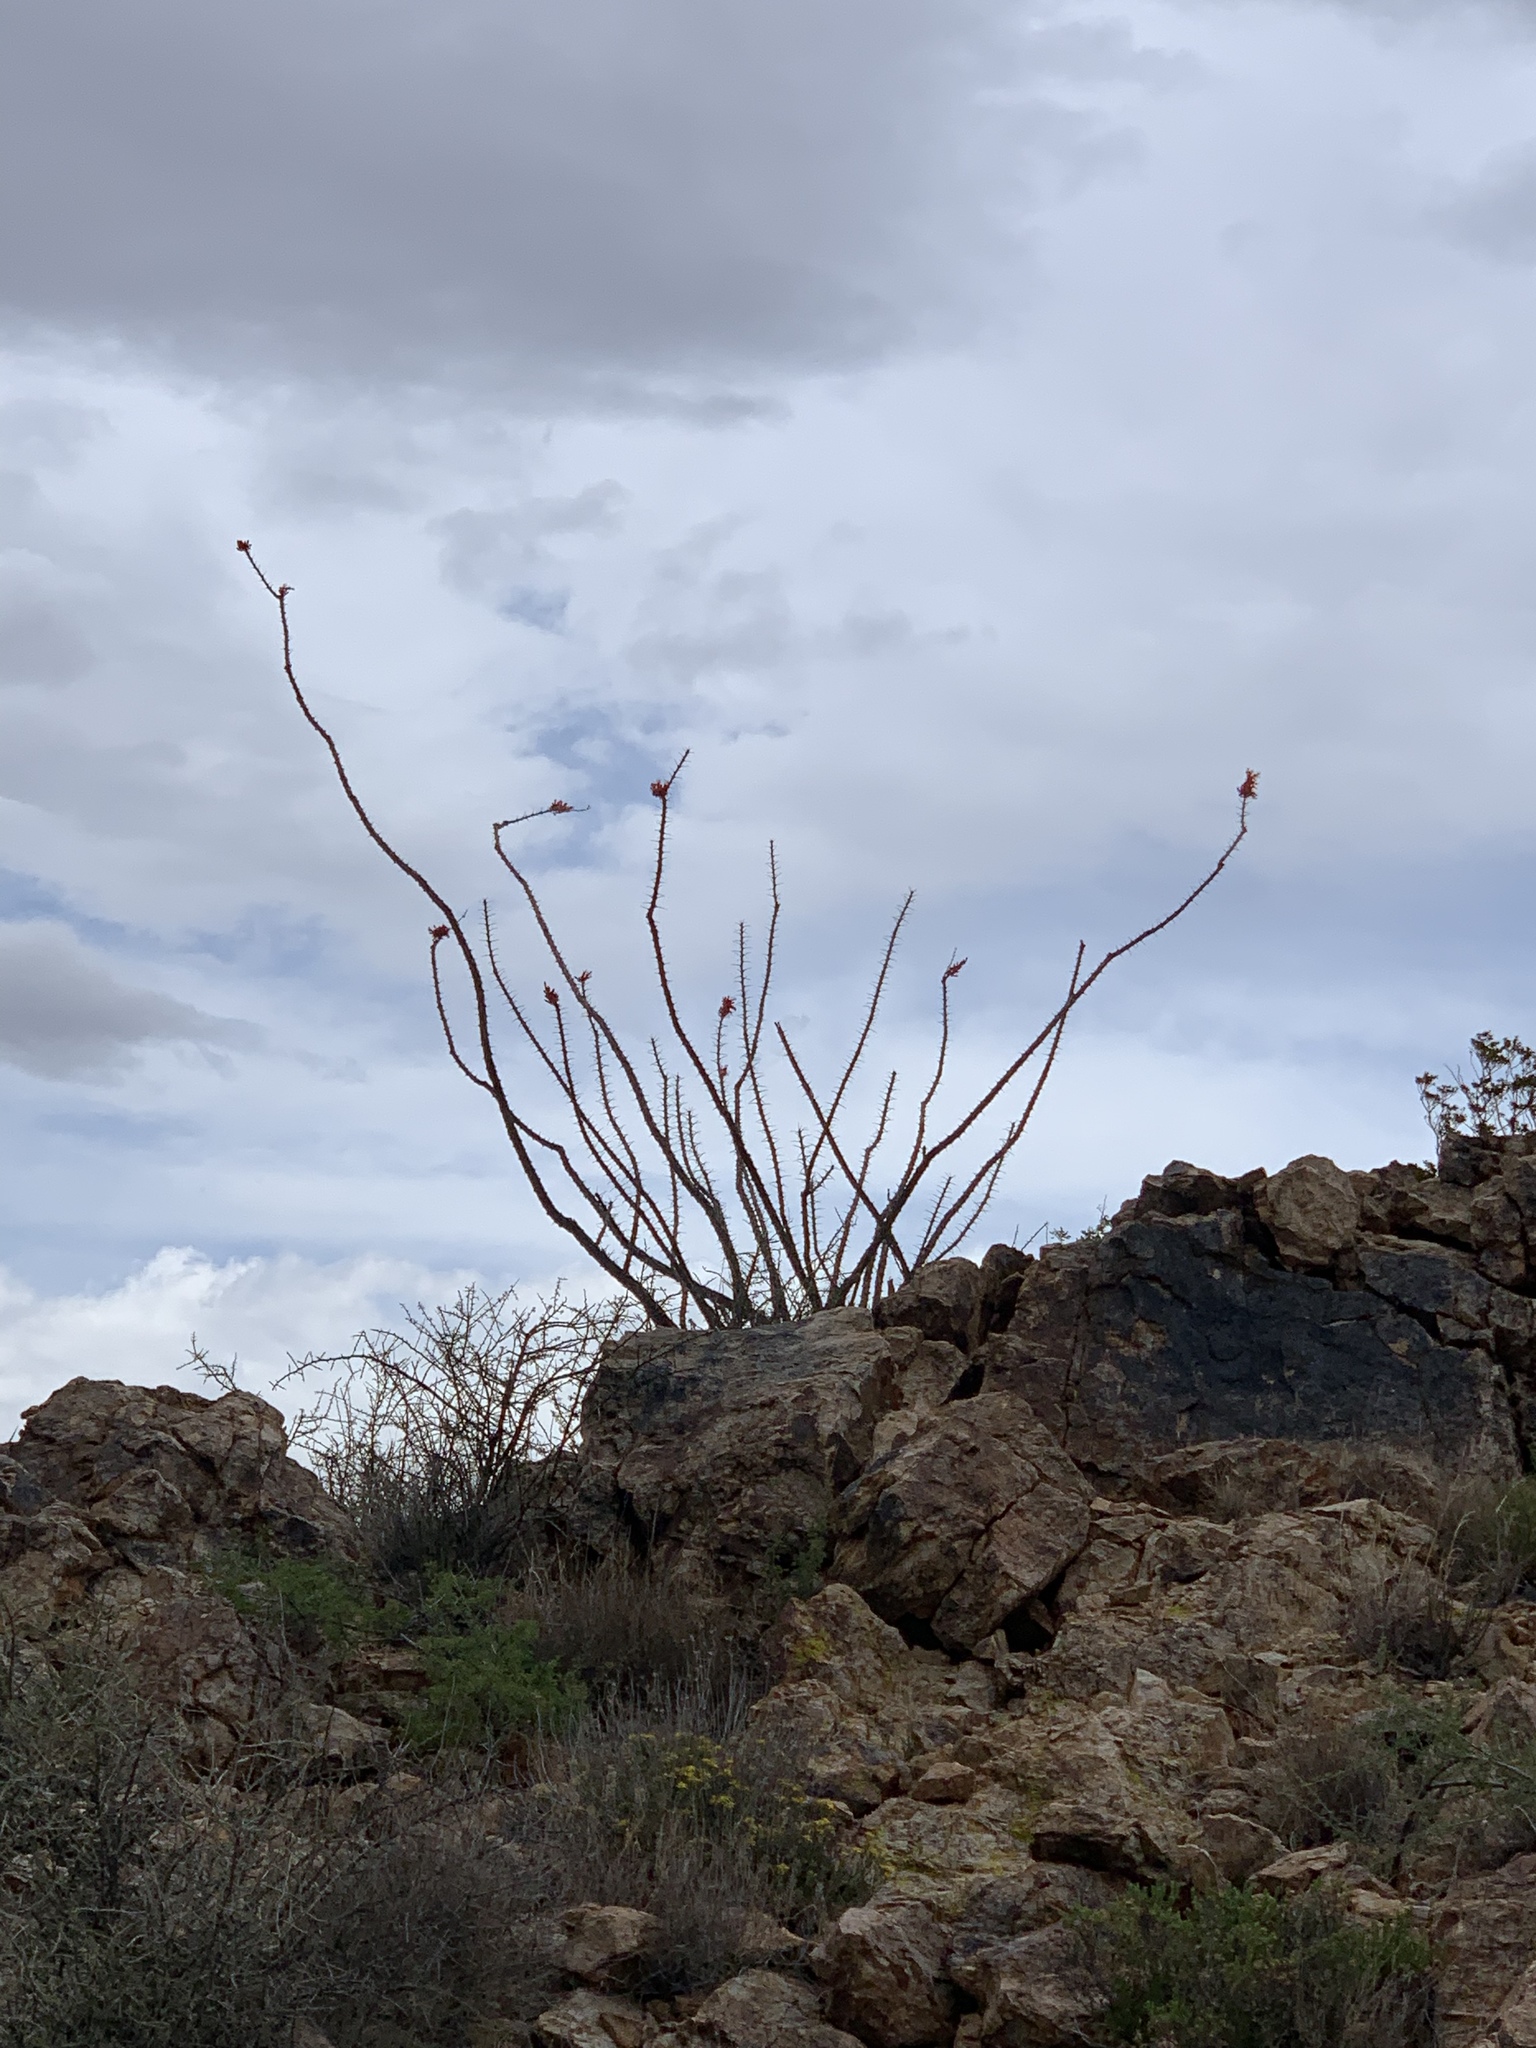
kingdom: Plantae
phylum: Tracheophyta
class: Magnoliopsida
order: Ericales
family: Fouquieriaceae
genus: Fouquieria
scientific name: Fouquieria splendens
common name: Vine-cactus
